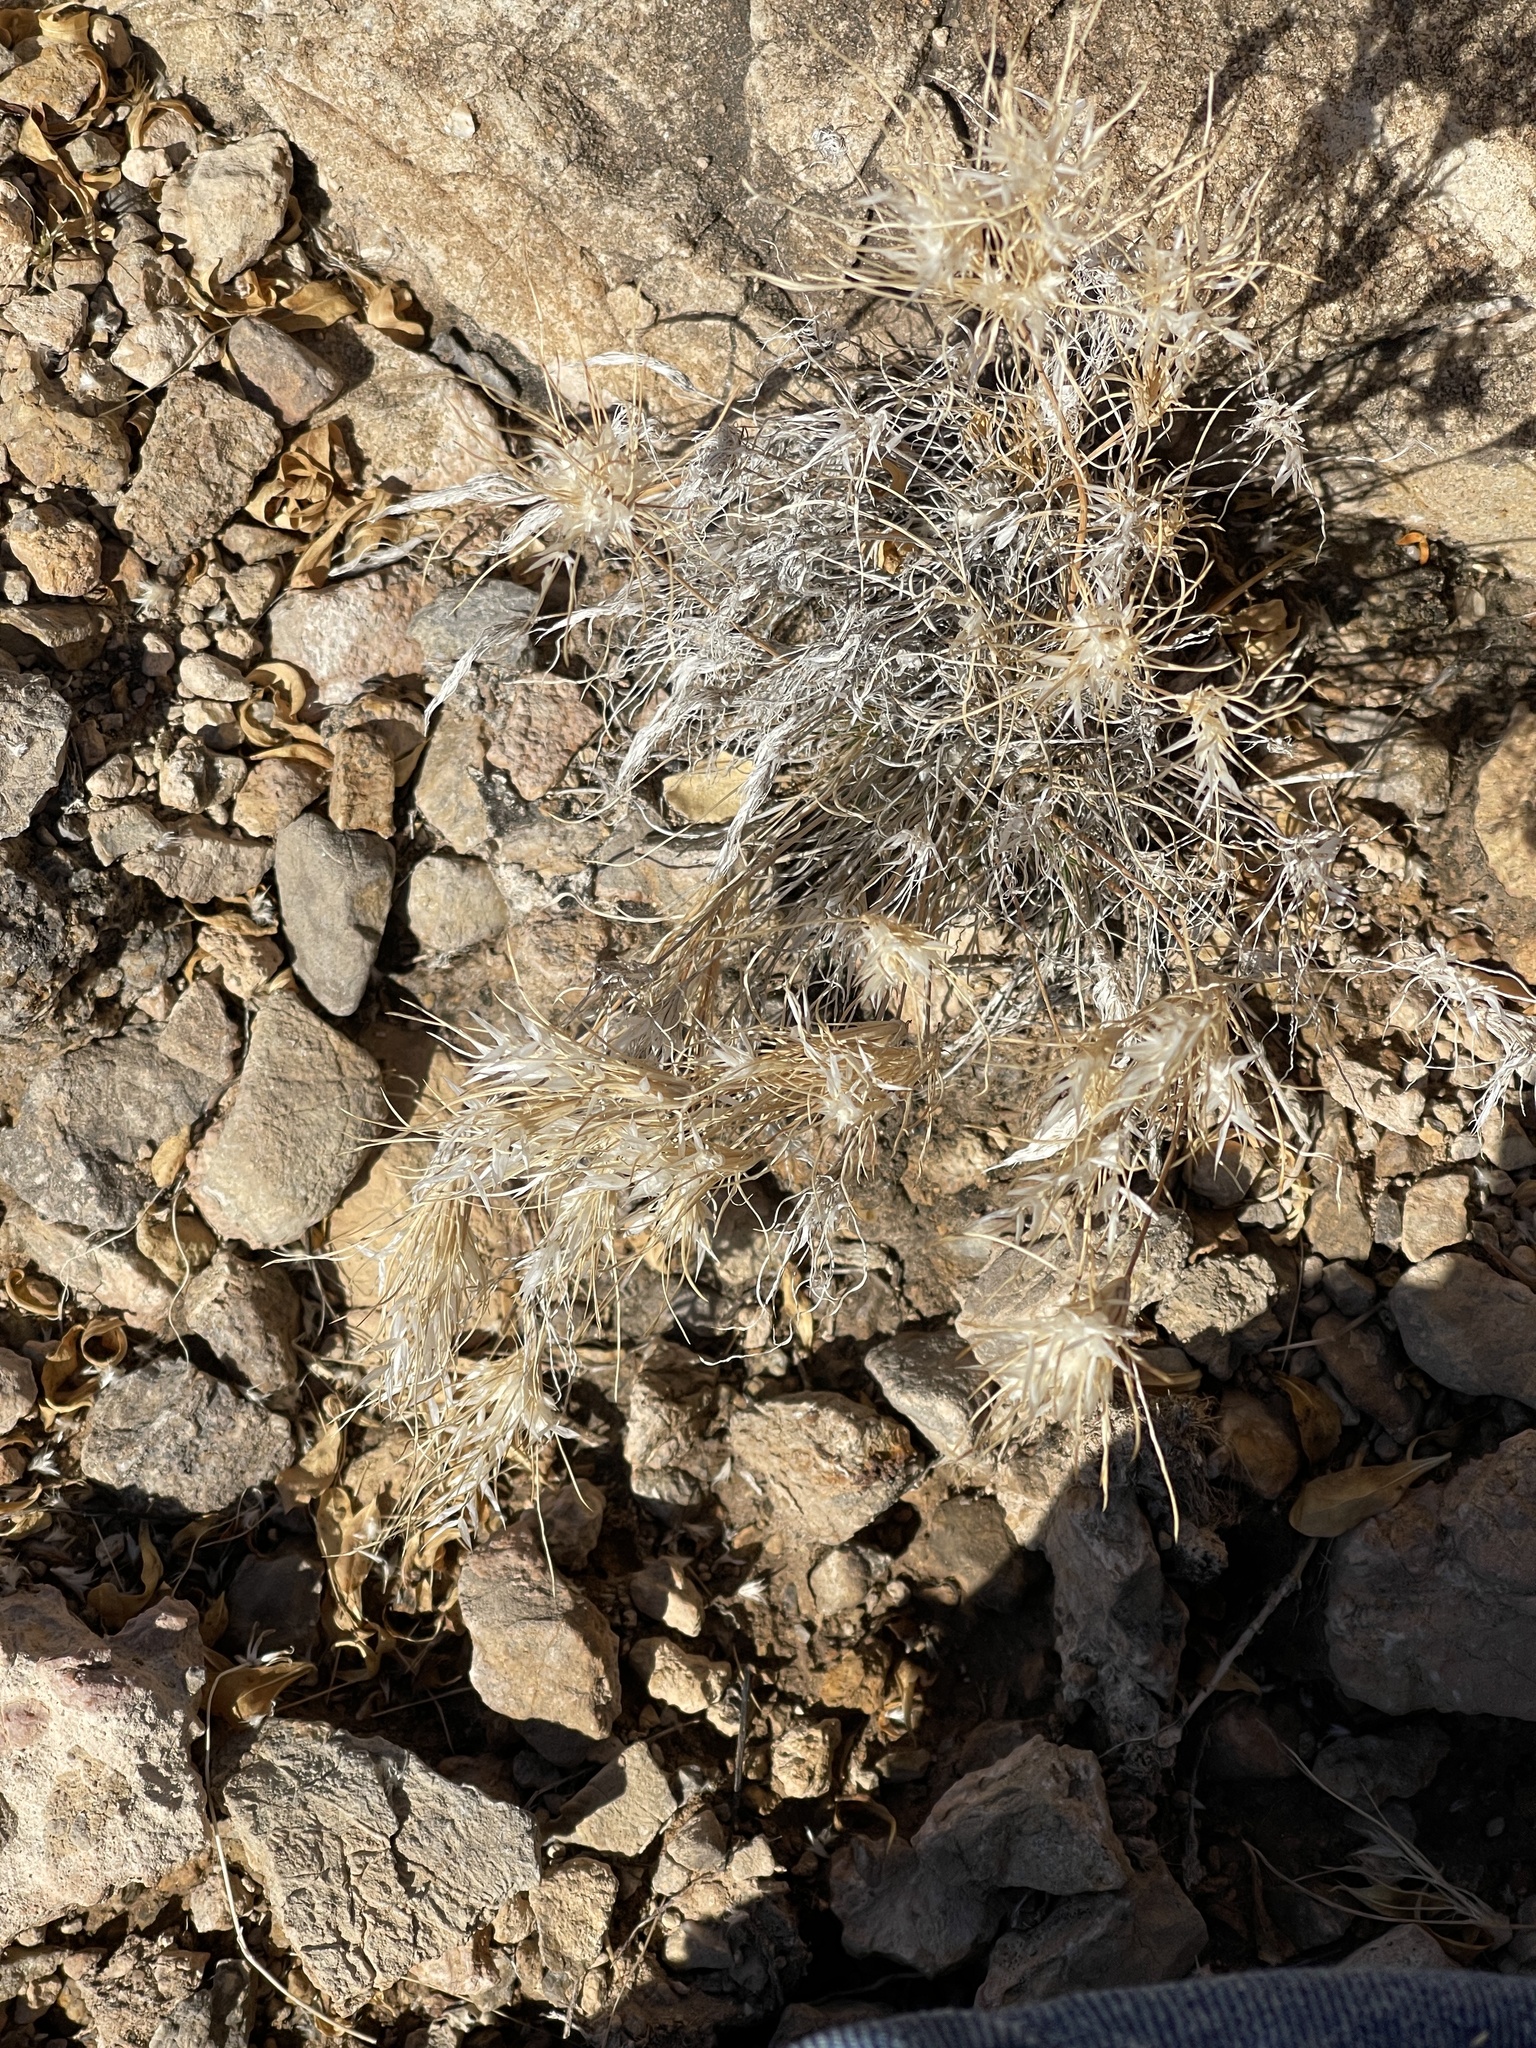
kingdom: Plantae
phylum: Tracheophyta
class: Liliopsida
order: Poales
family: Poaceae
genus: Dasyochloa
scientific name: Dasyochloa pulchella
